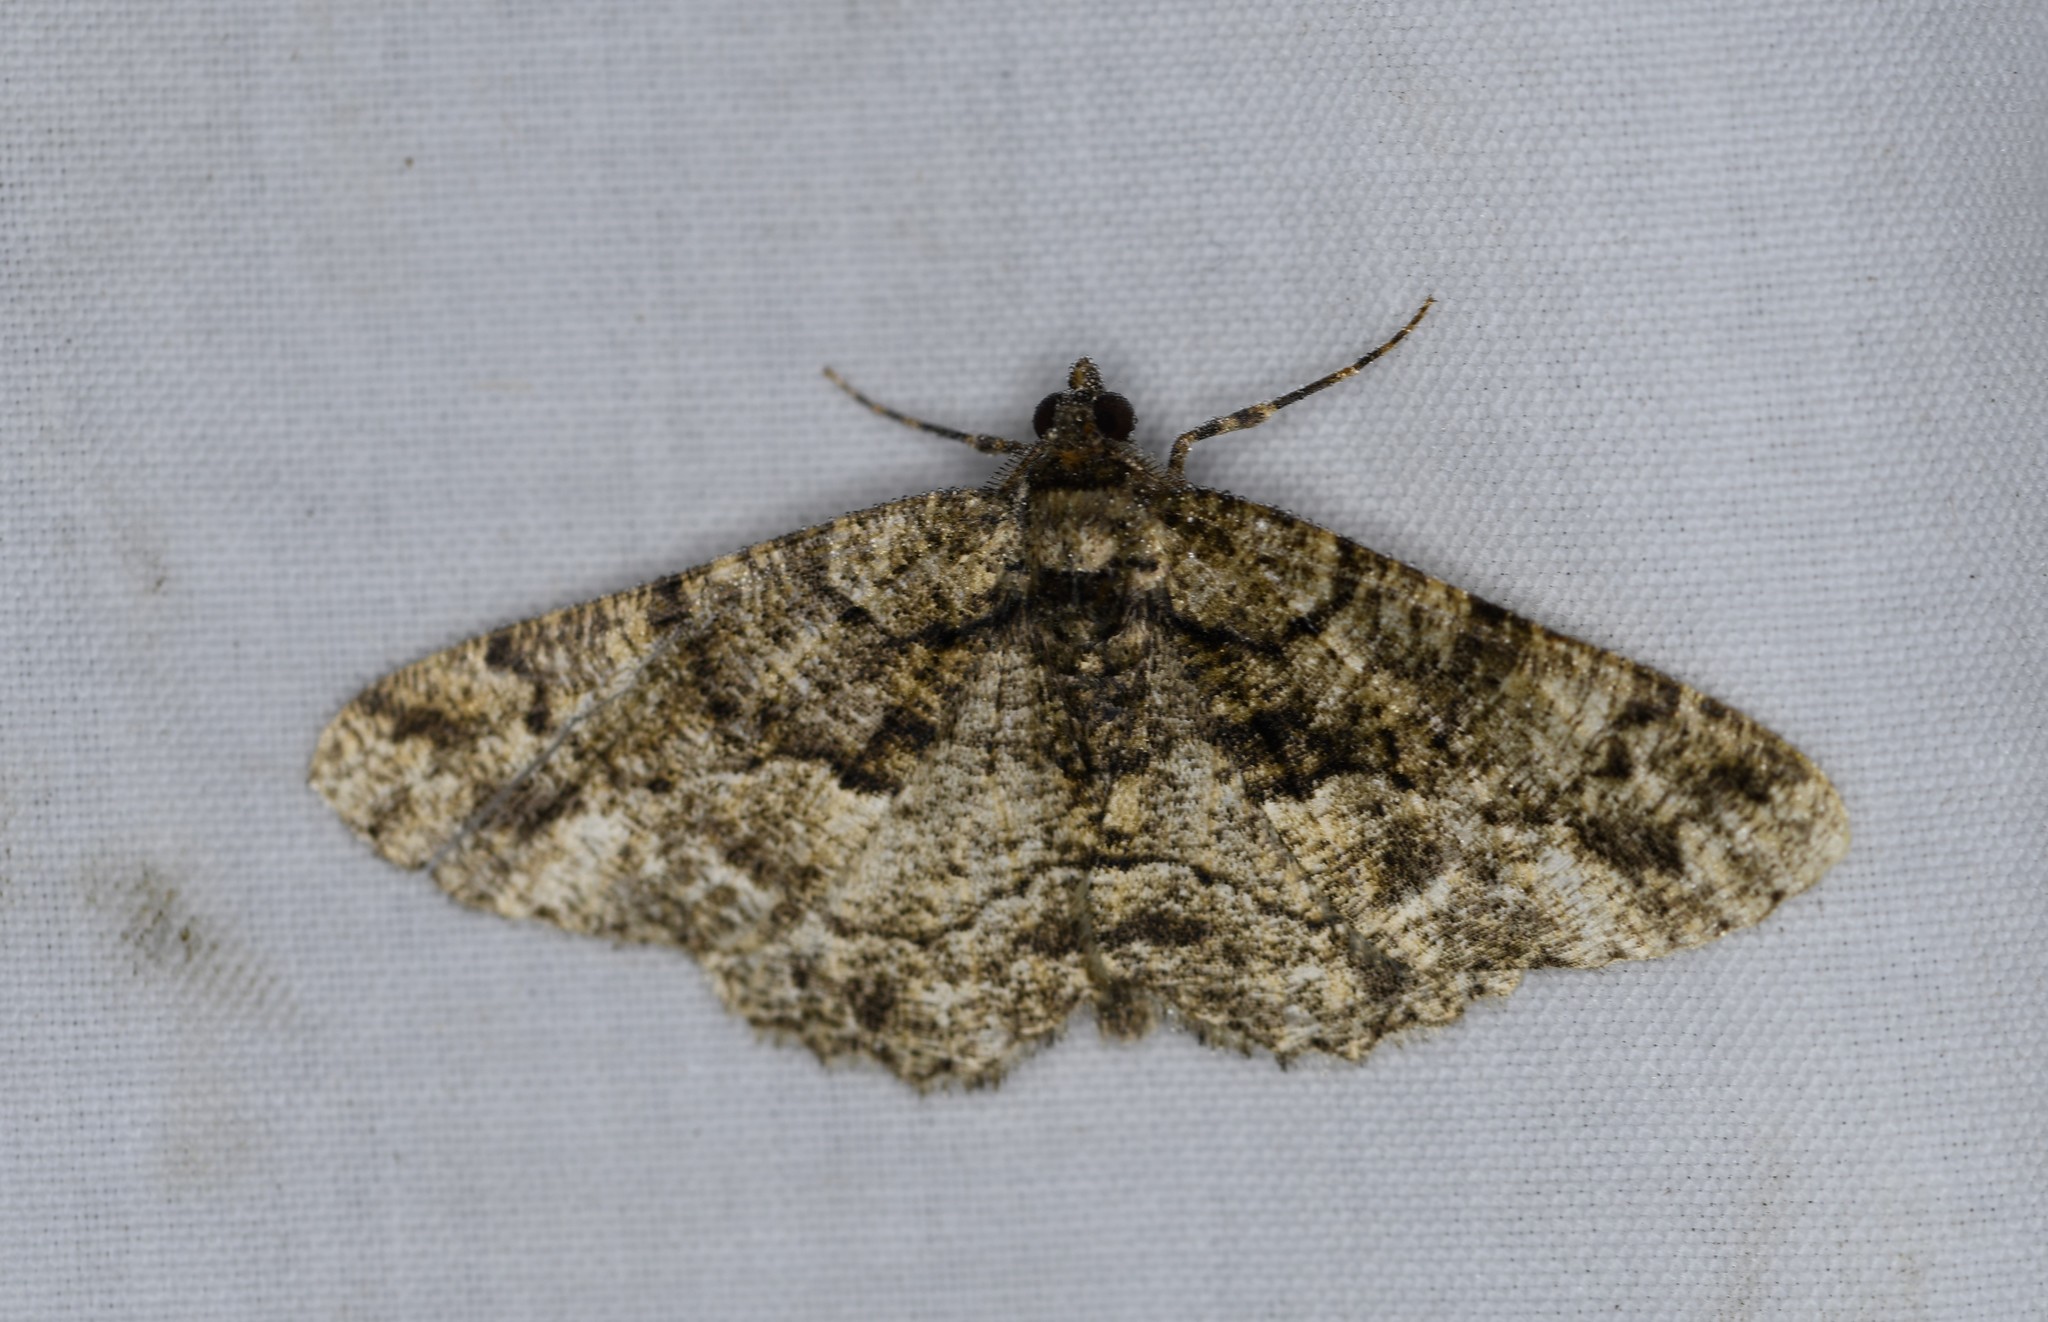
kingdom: Animalia
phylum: Arthropoda
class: Insecta
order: Lepidoptera
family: Geometridae
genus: Peribatodes
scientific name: Peribatodes ilicaria
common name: Lydd beauty
